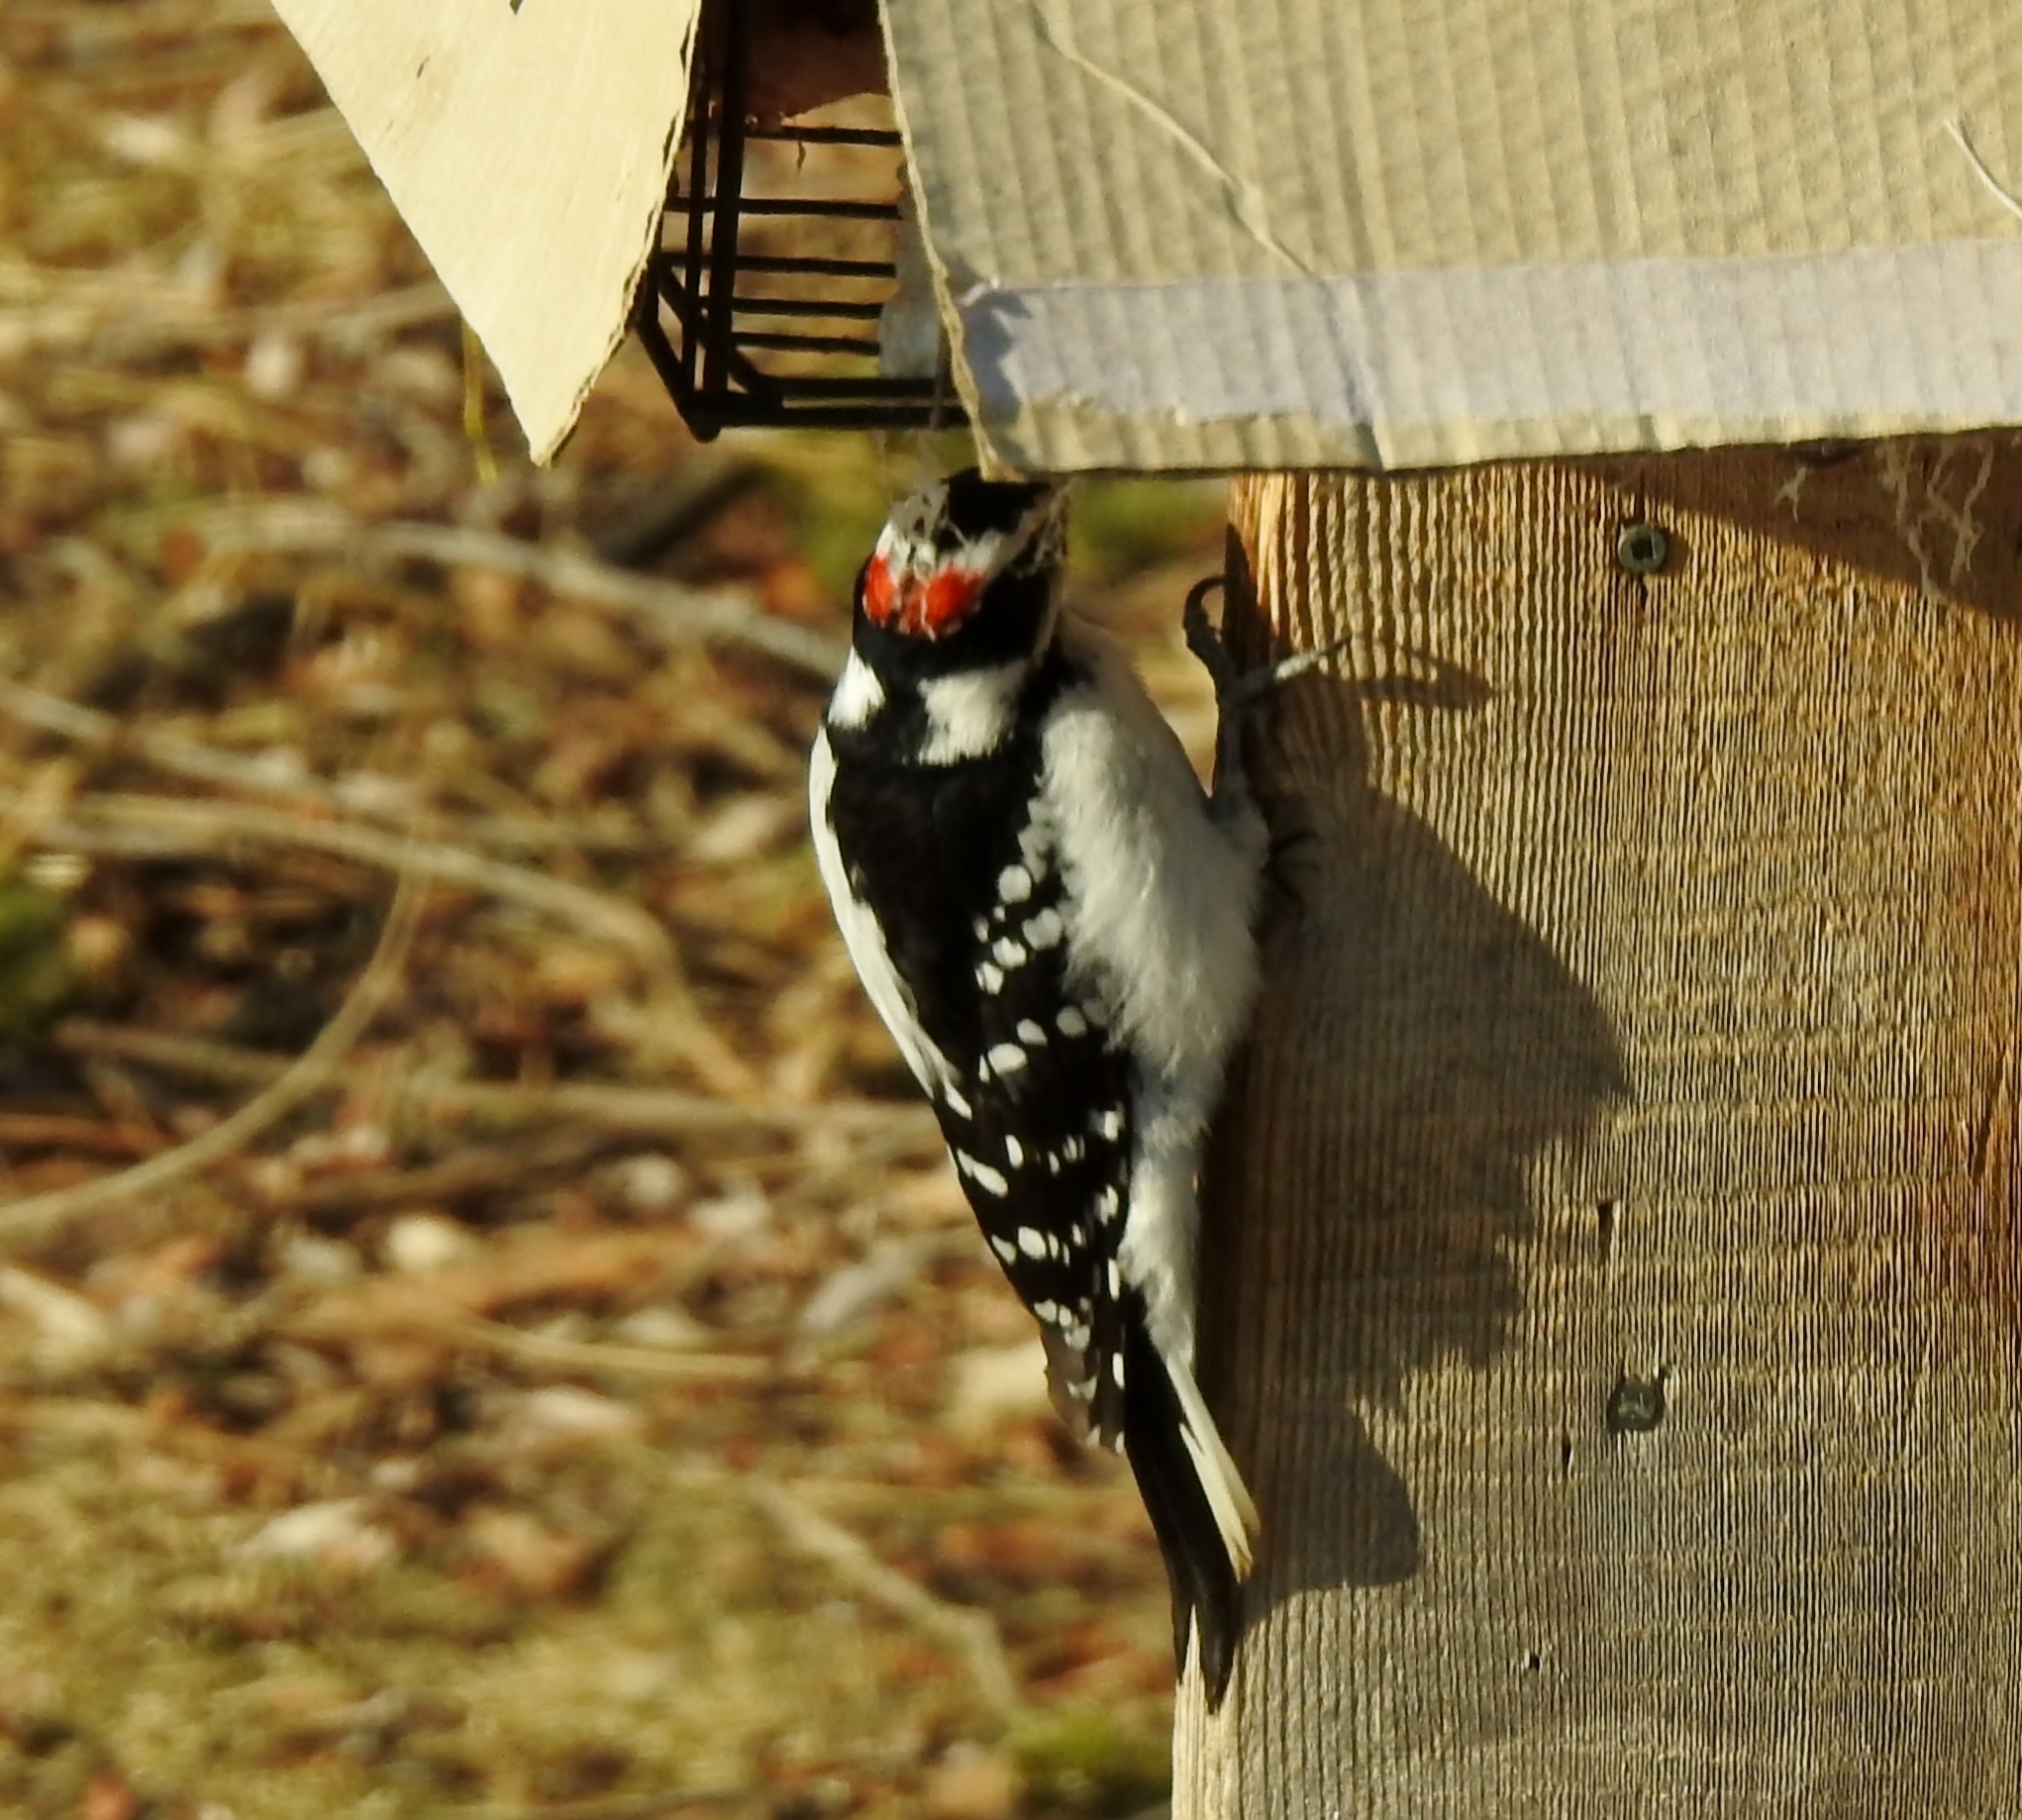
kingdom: Animalia
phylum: Chordata
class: Aves
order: Piciformes
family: Picidae
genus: Dryobates
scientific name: Dryobates pubescens
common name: Downy woodpecker
